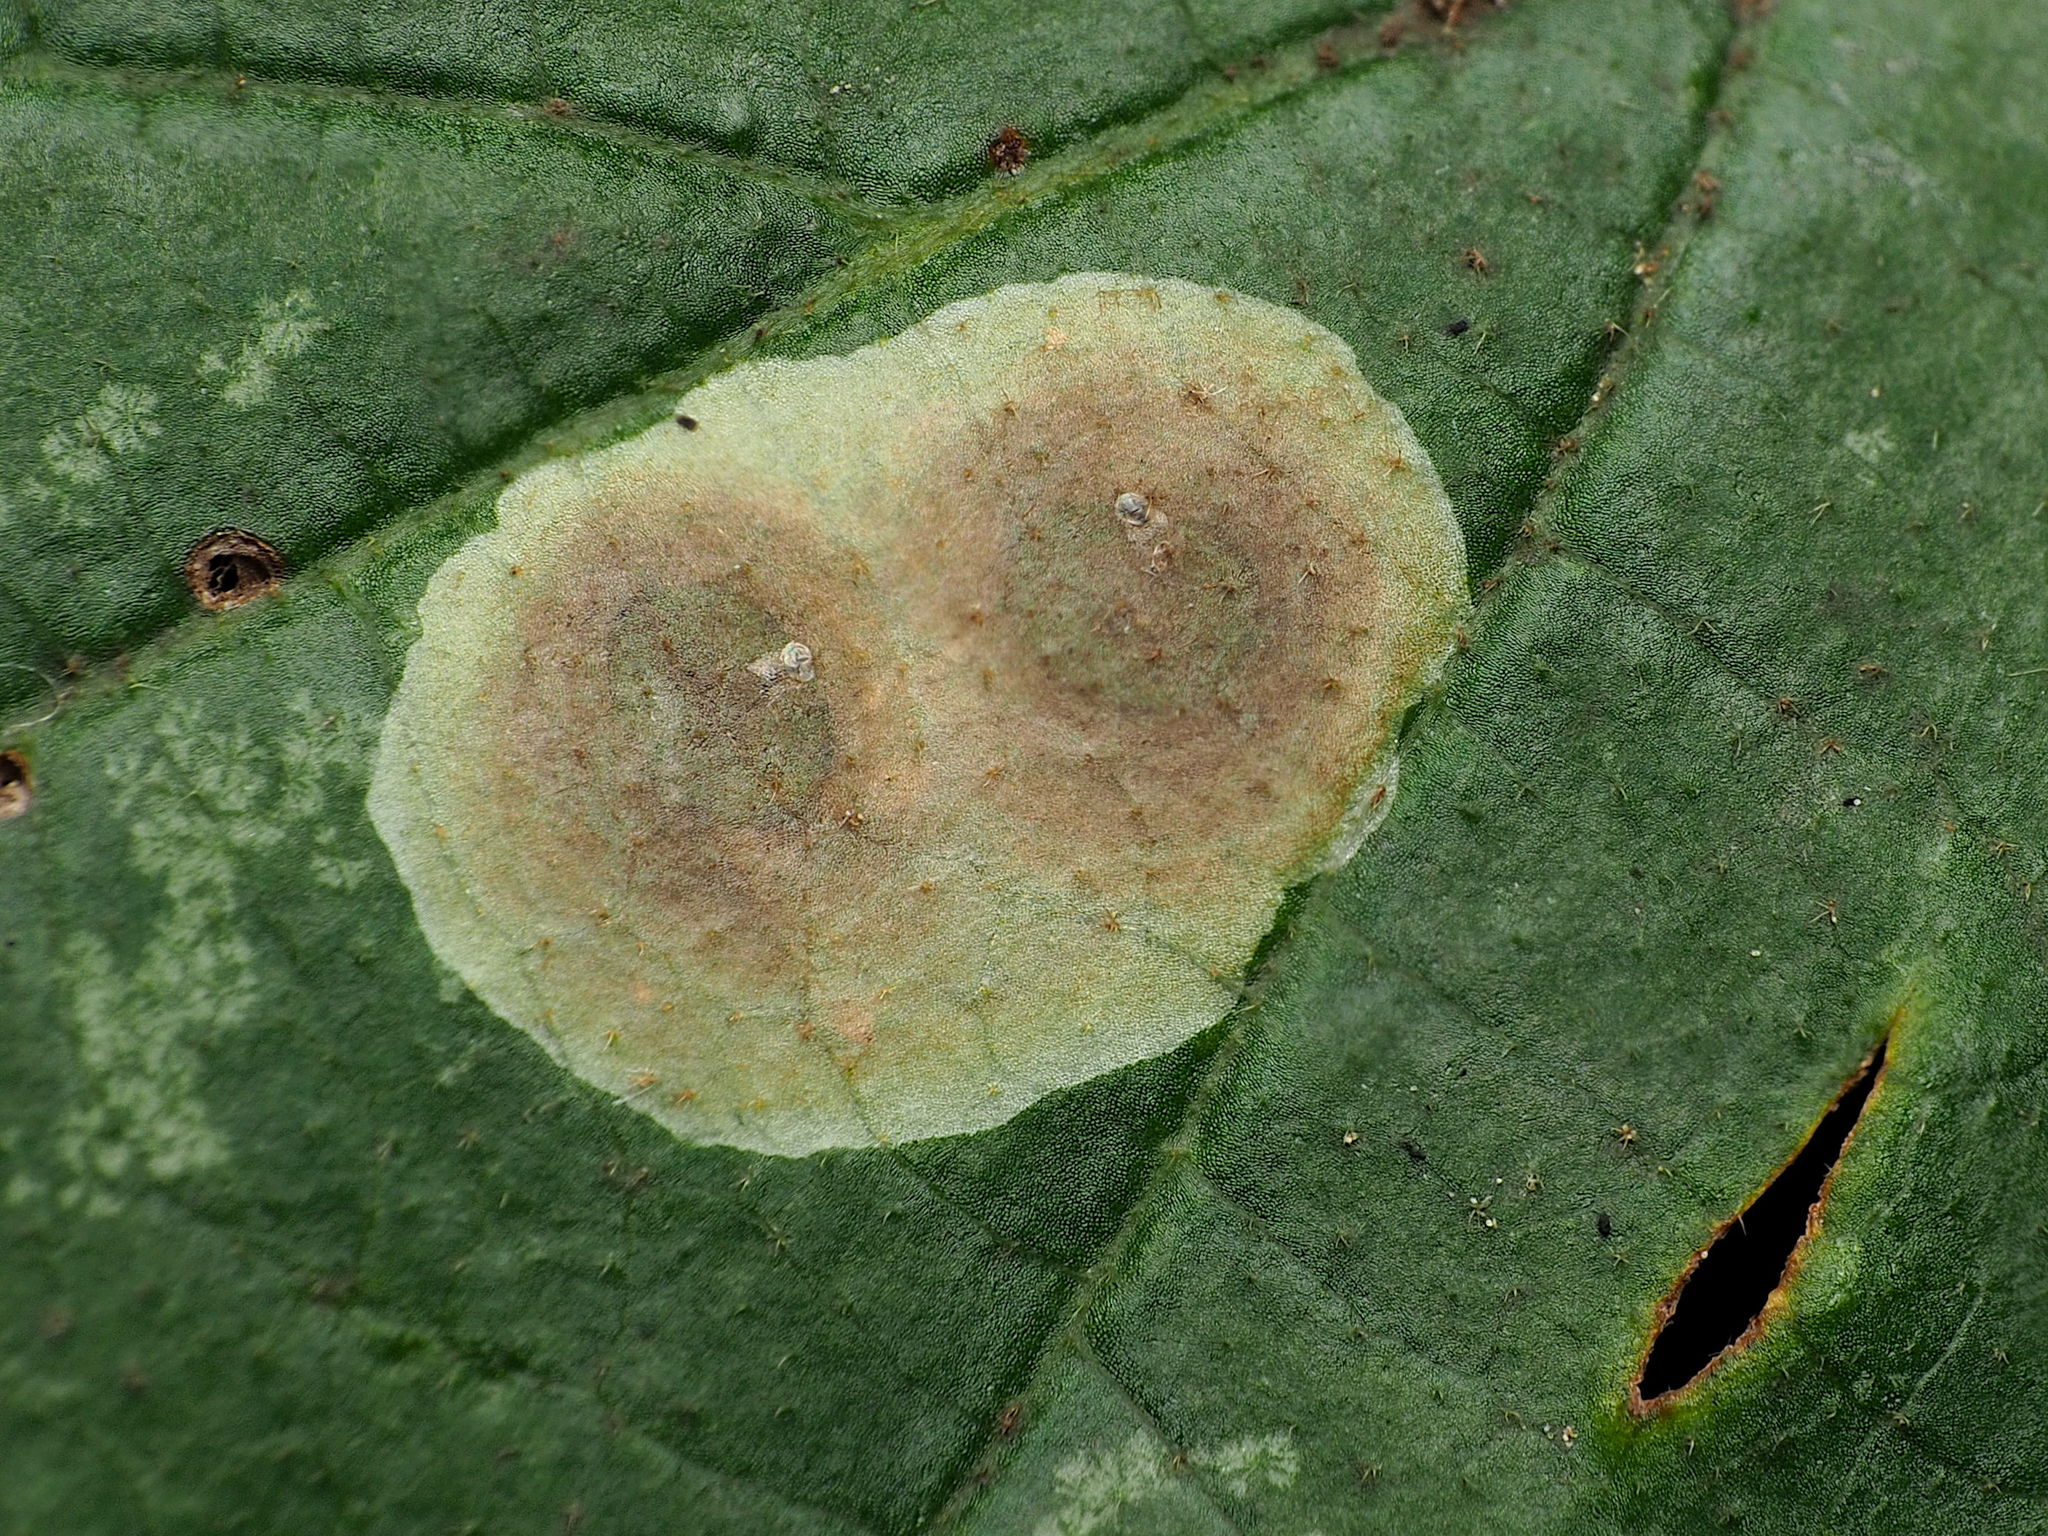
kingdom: Animalia
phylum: Arthropoda
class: Insecta
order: Lepidoptera
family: Gracillariidae
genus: Cameraria
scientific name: Cameraria hamameliella
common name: Witchhazel leafminer
